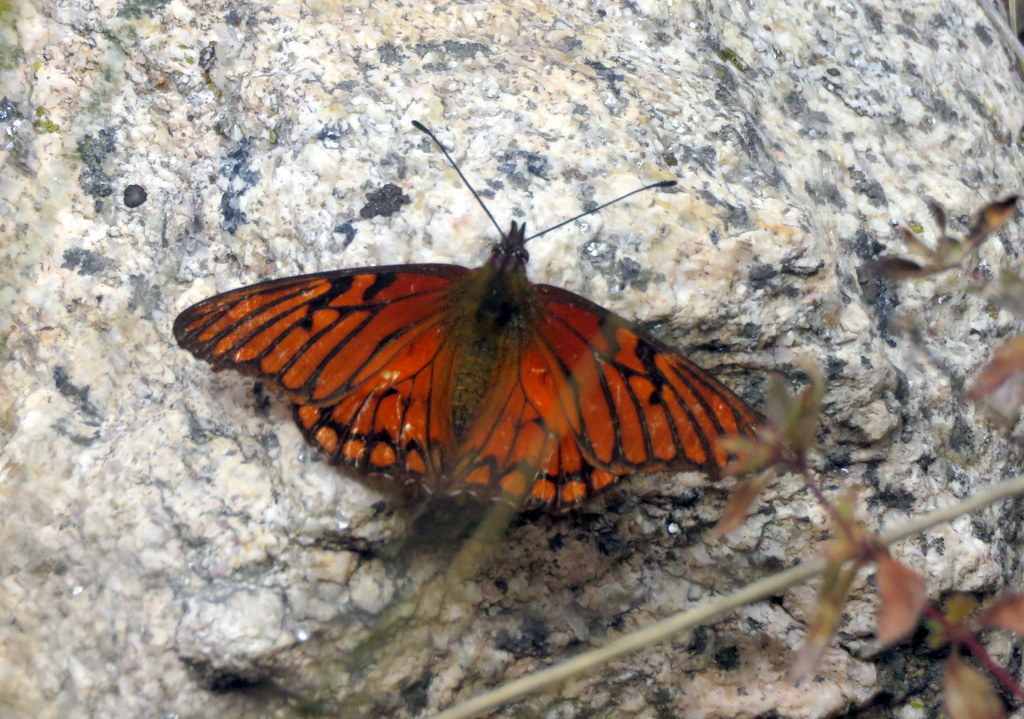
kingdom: Animalia
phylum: Arthropoda
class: Insecta
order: Lepidoptera
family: Nymphalidae
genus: Dione
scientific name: Dione glycera
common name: Andean silverspot
